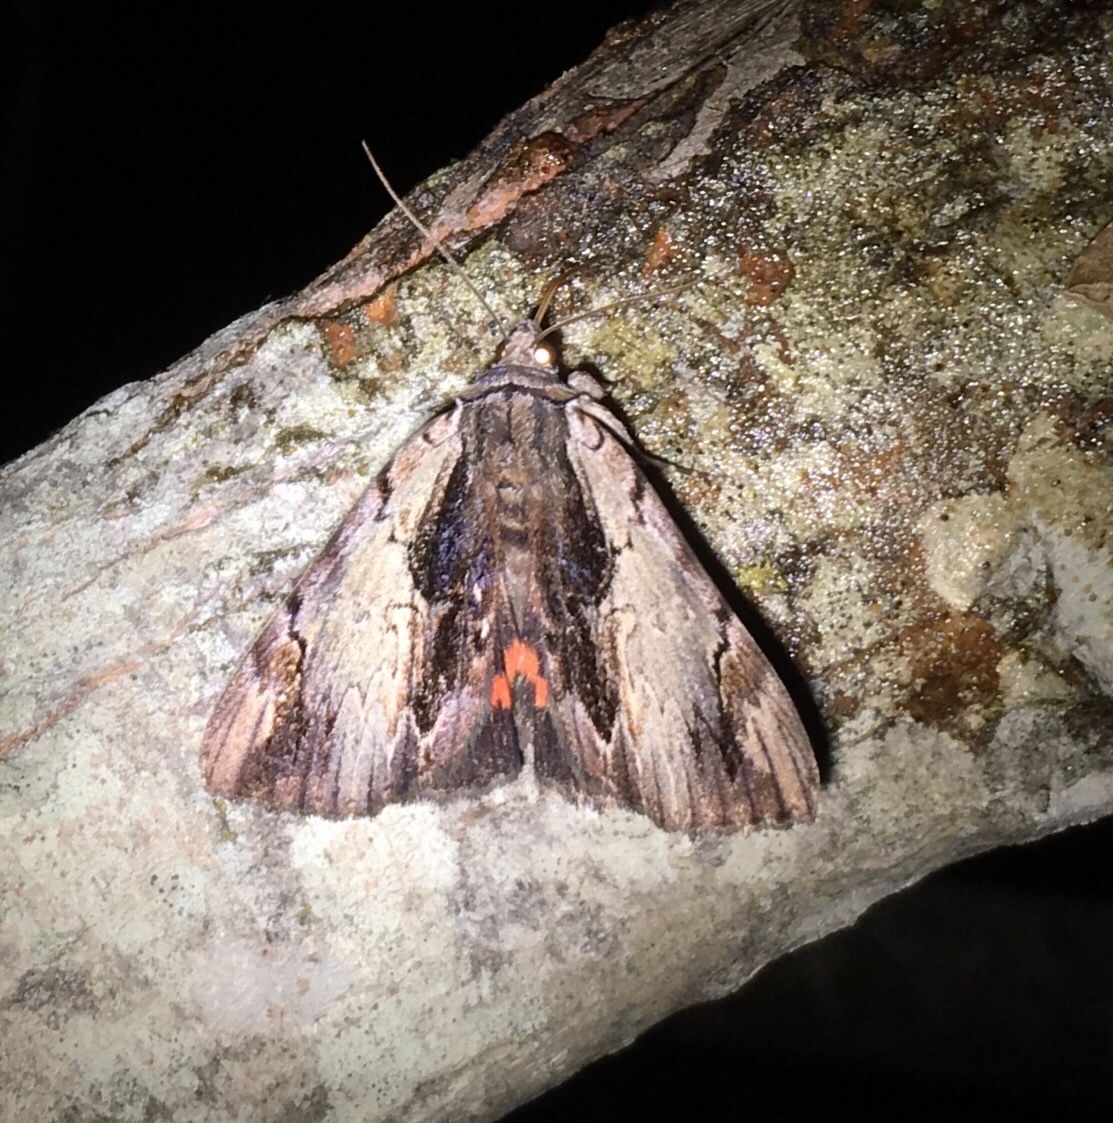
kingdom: Animalia
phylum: Arthropoda
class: Insecta
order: Lepidoptera
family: Erebidae
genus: Catocala
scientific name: Catocala ultronia
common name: Ultronia underwing
